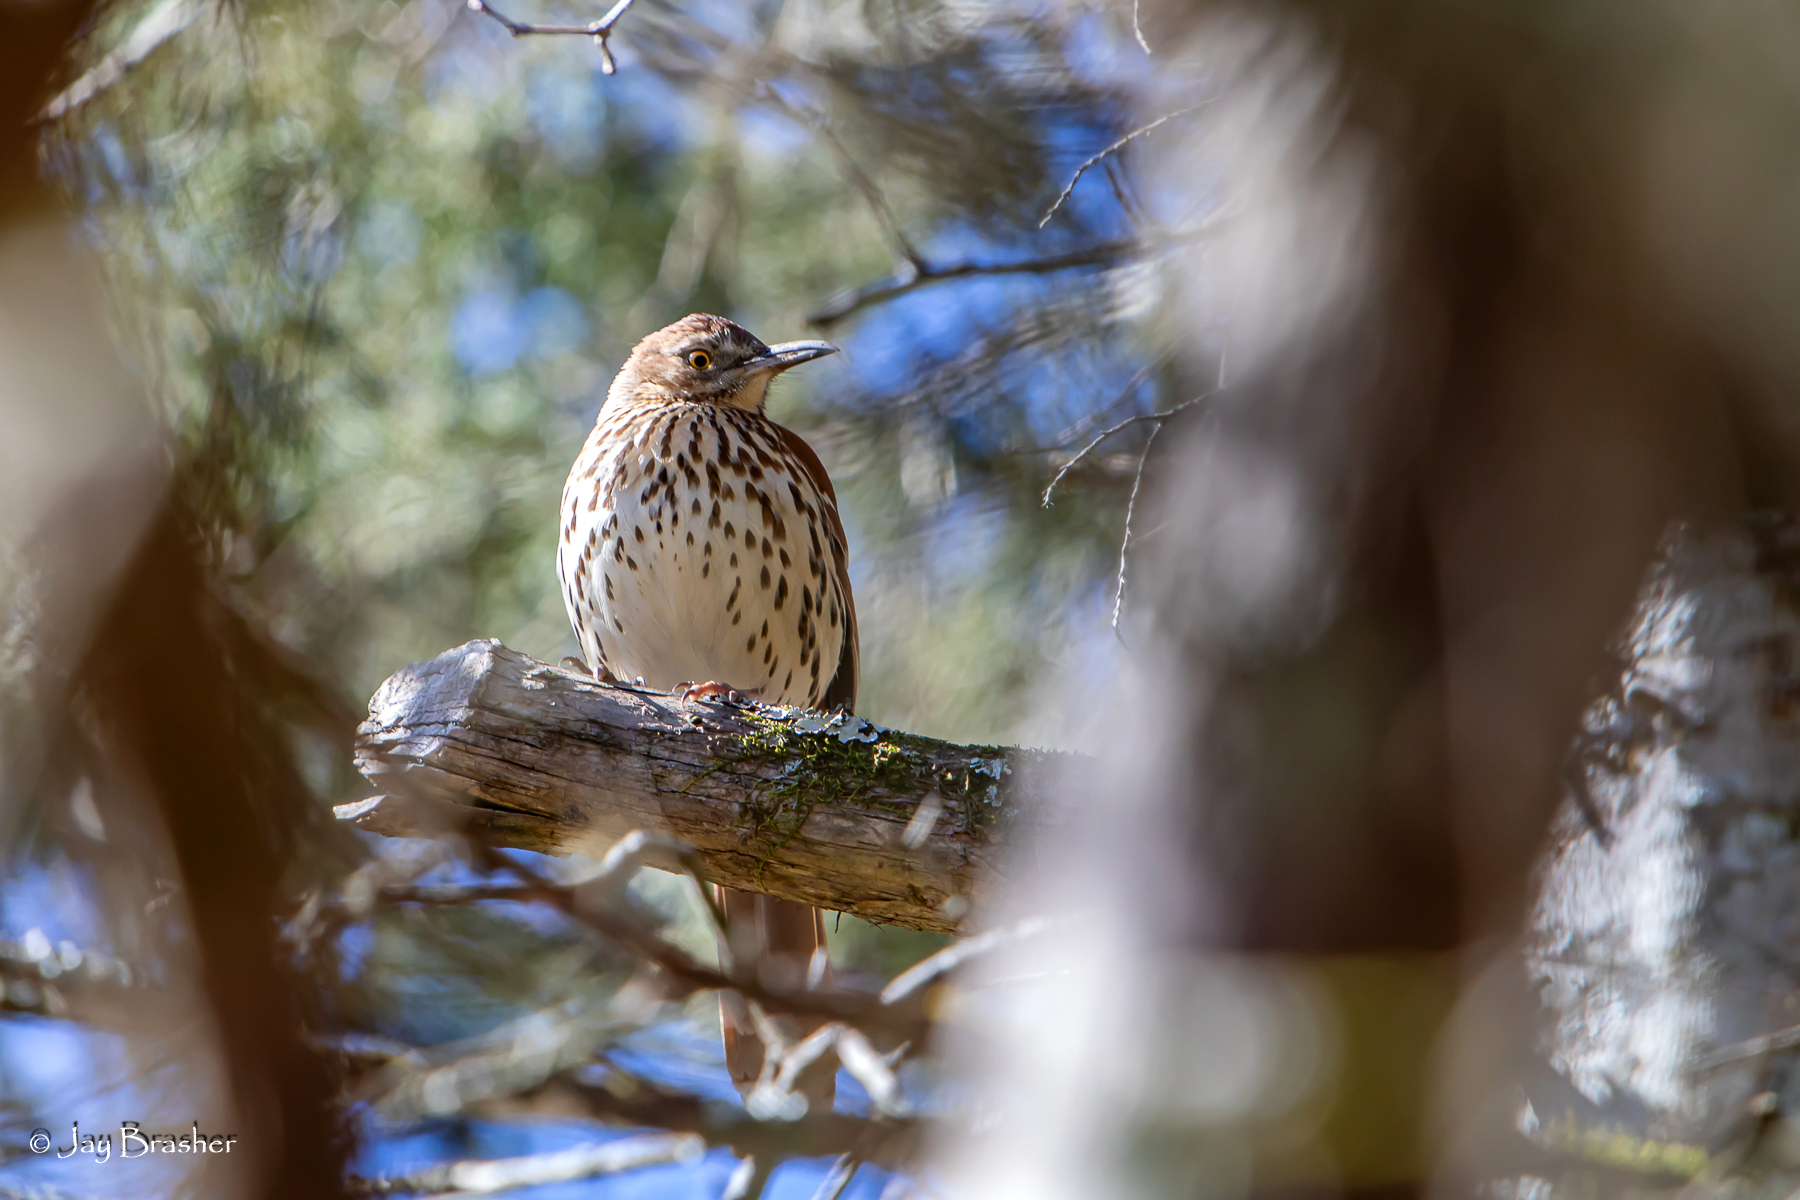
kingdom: Animalia
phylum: Chordata
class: Aves
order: Passeriformes
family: Mimidae
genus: Toxostoma
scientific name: Toxostoma rufum
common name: Brown thrasher
